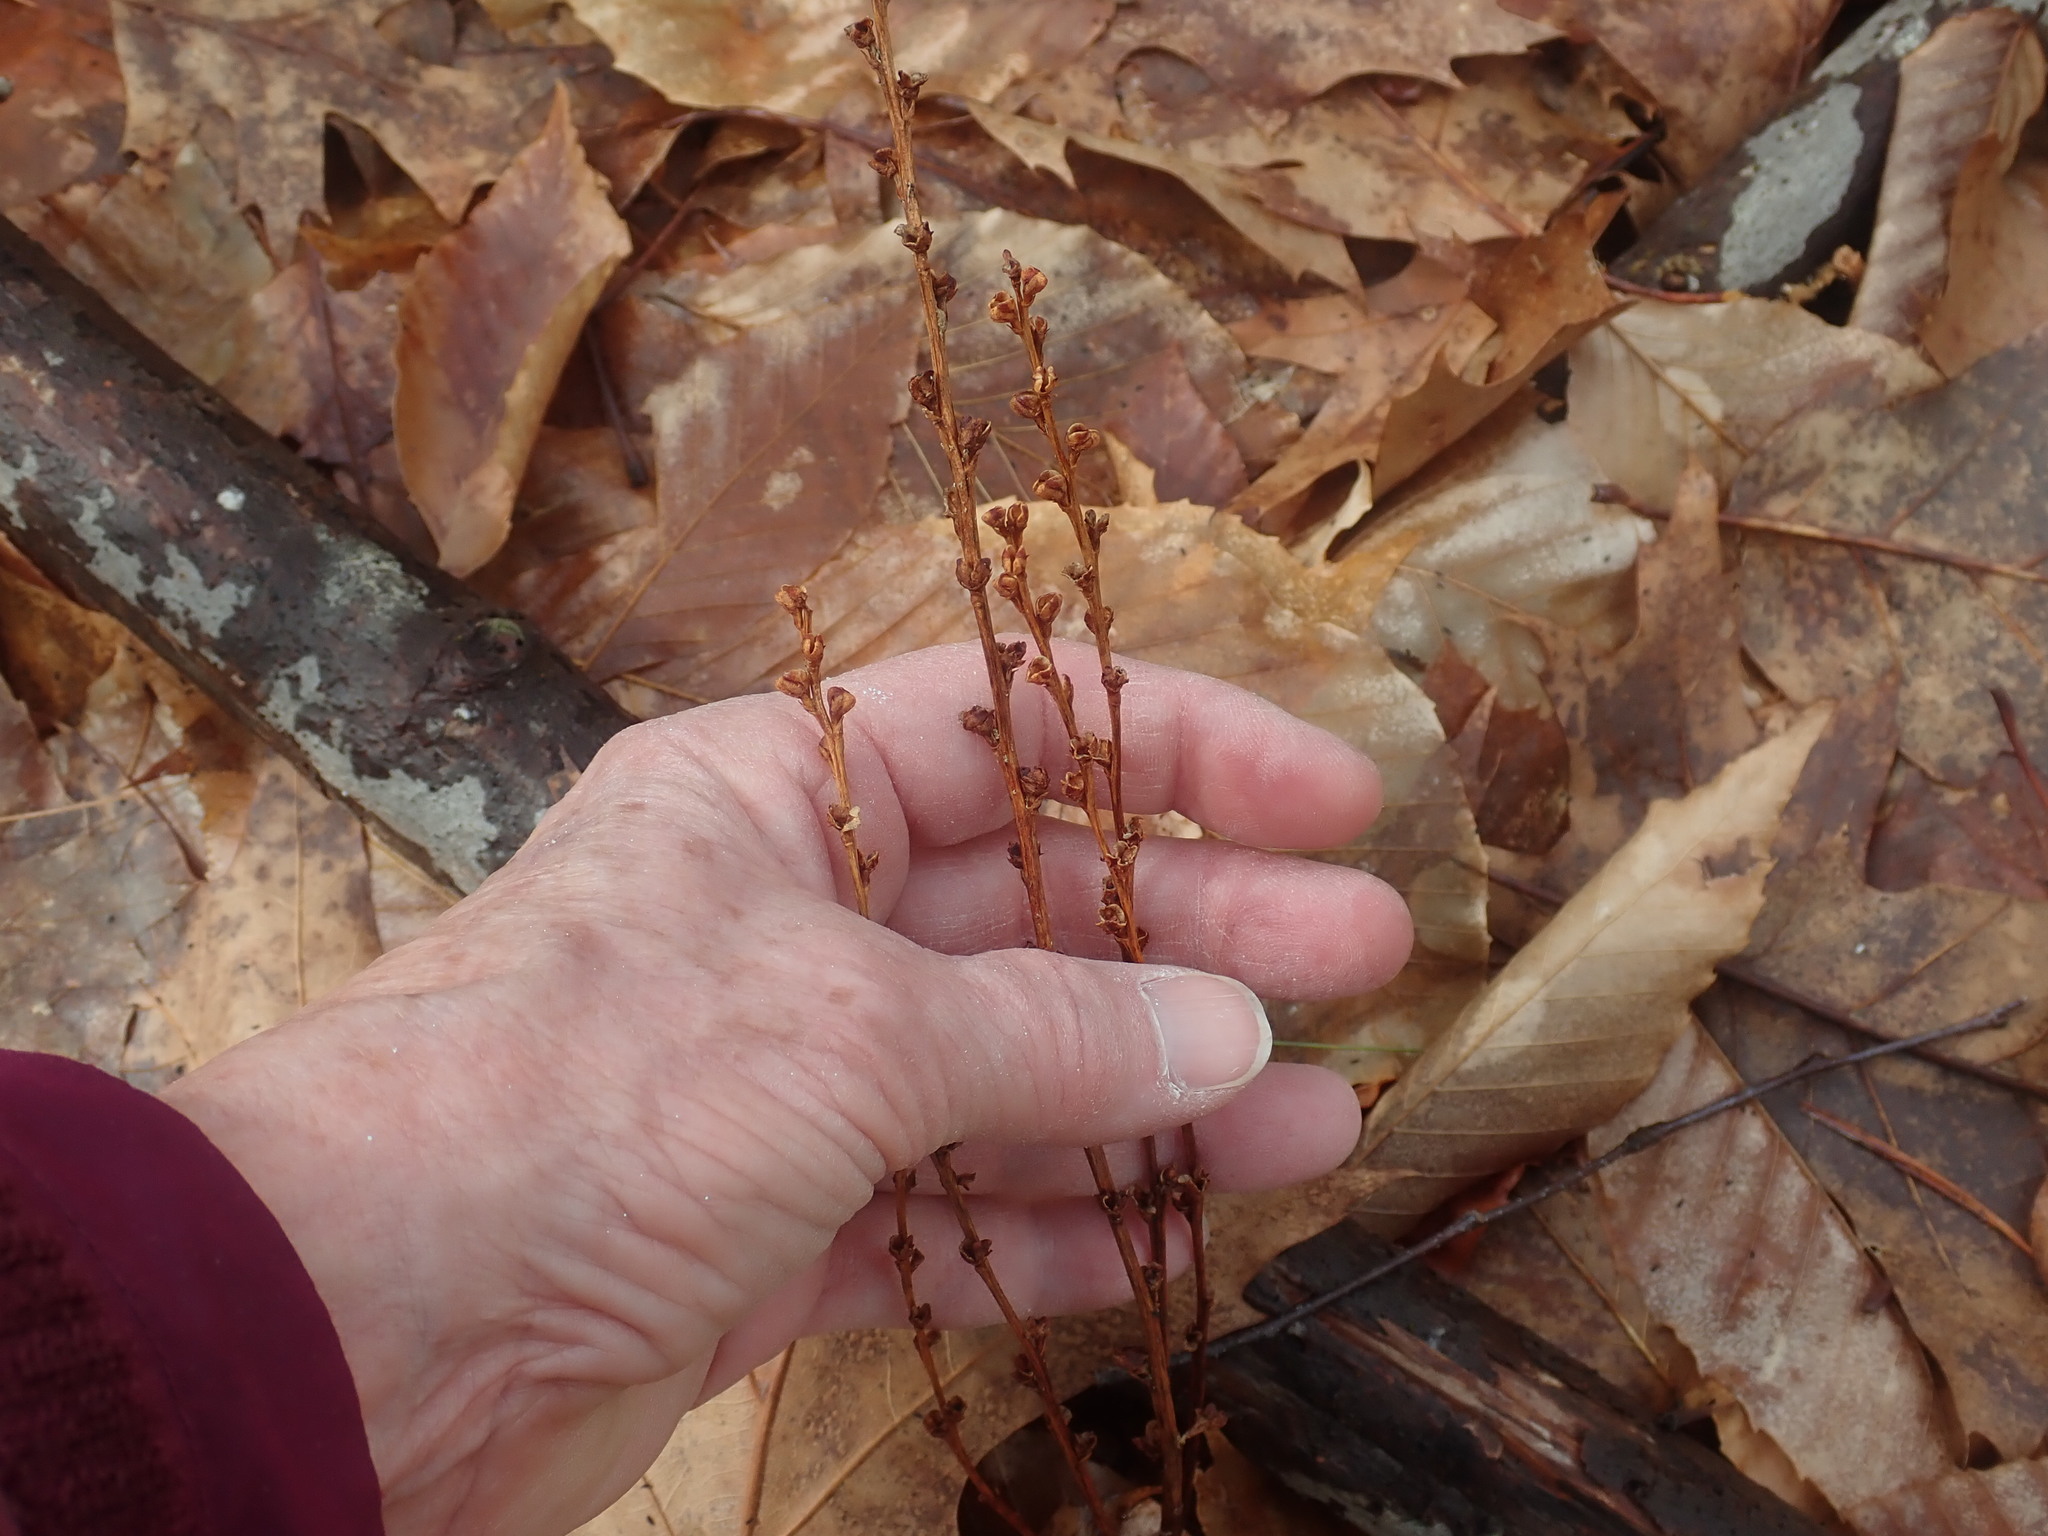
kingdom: Plantae
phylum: Tracheophyta
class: Magnoliopsida
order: Lamiales
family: Orobanchaceae
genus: Epifagus
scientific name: Epifagus virginiana
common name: Beechdrops
